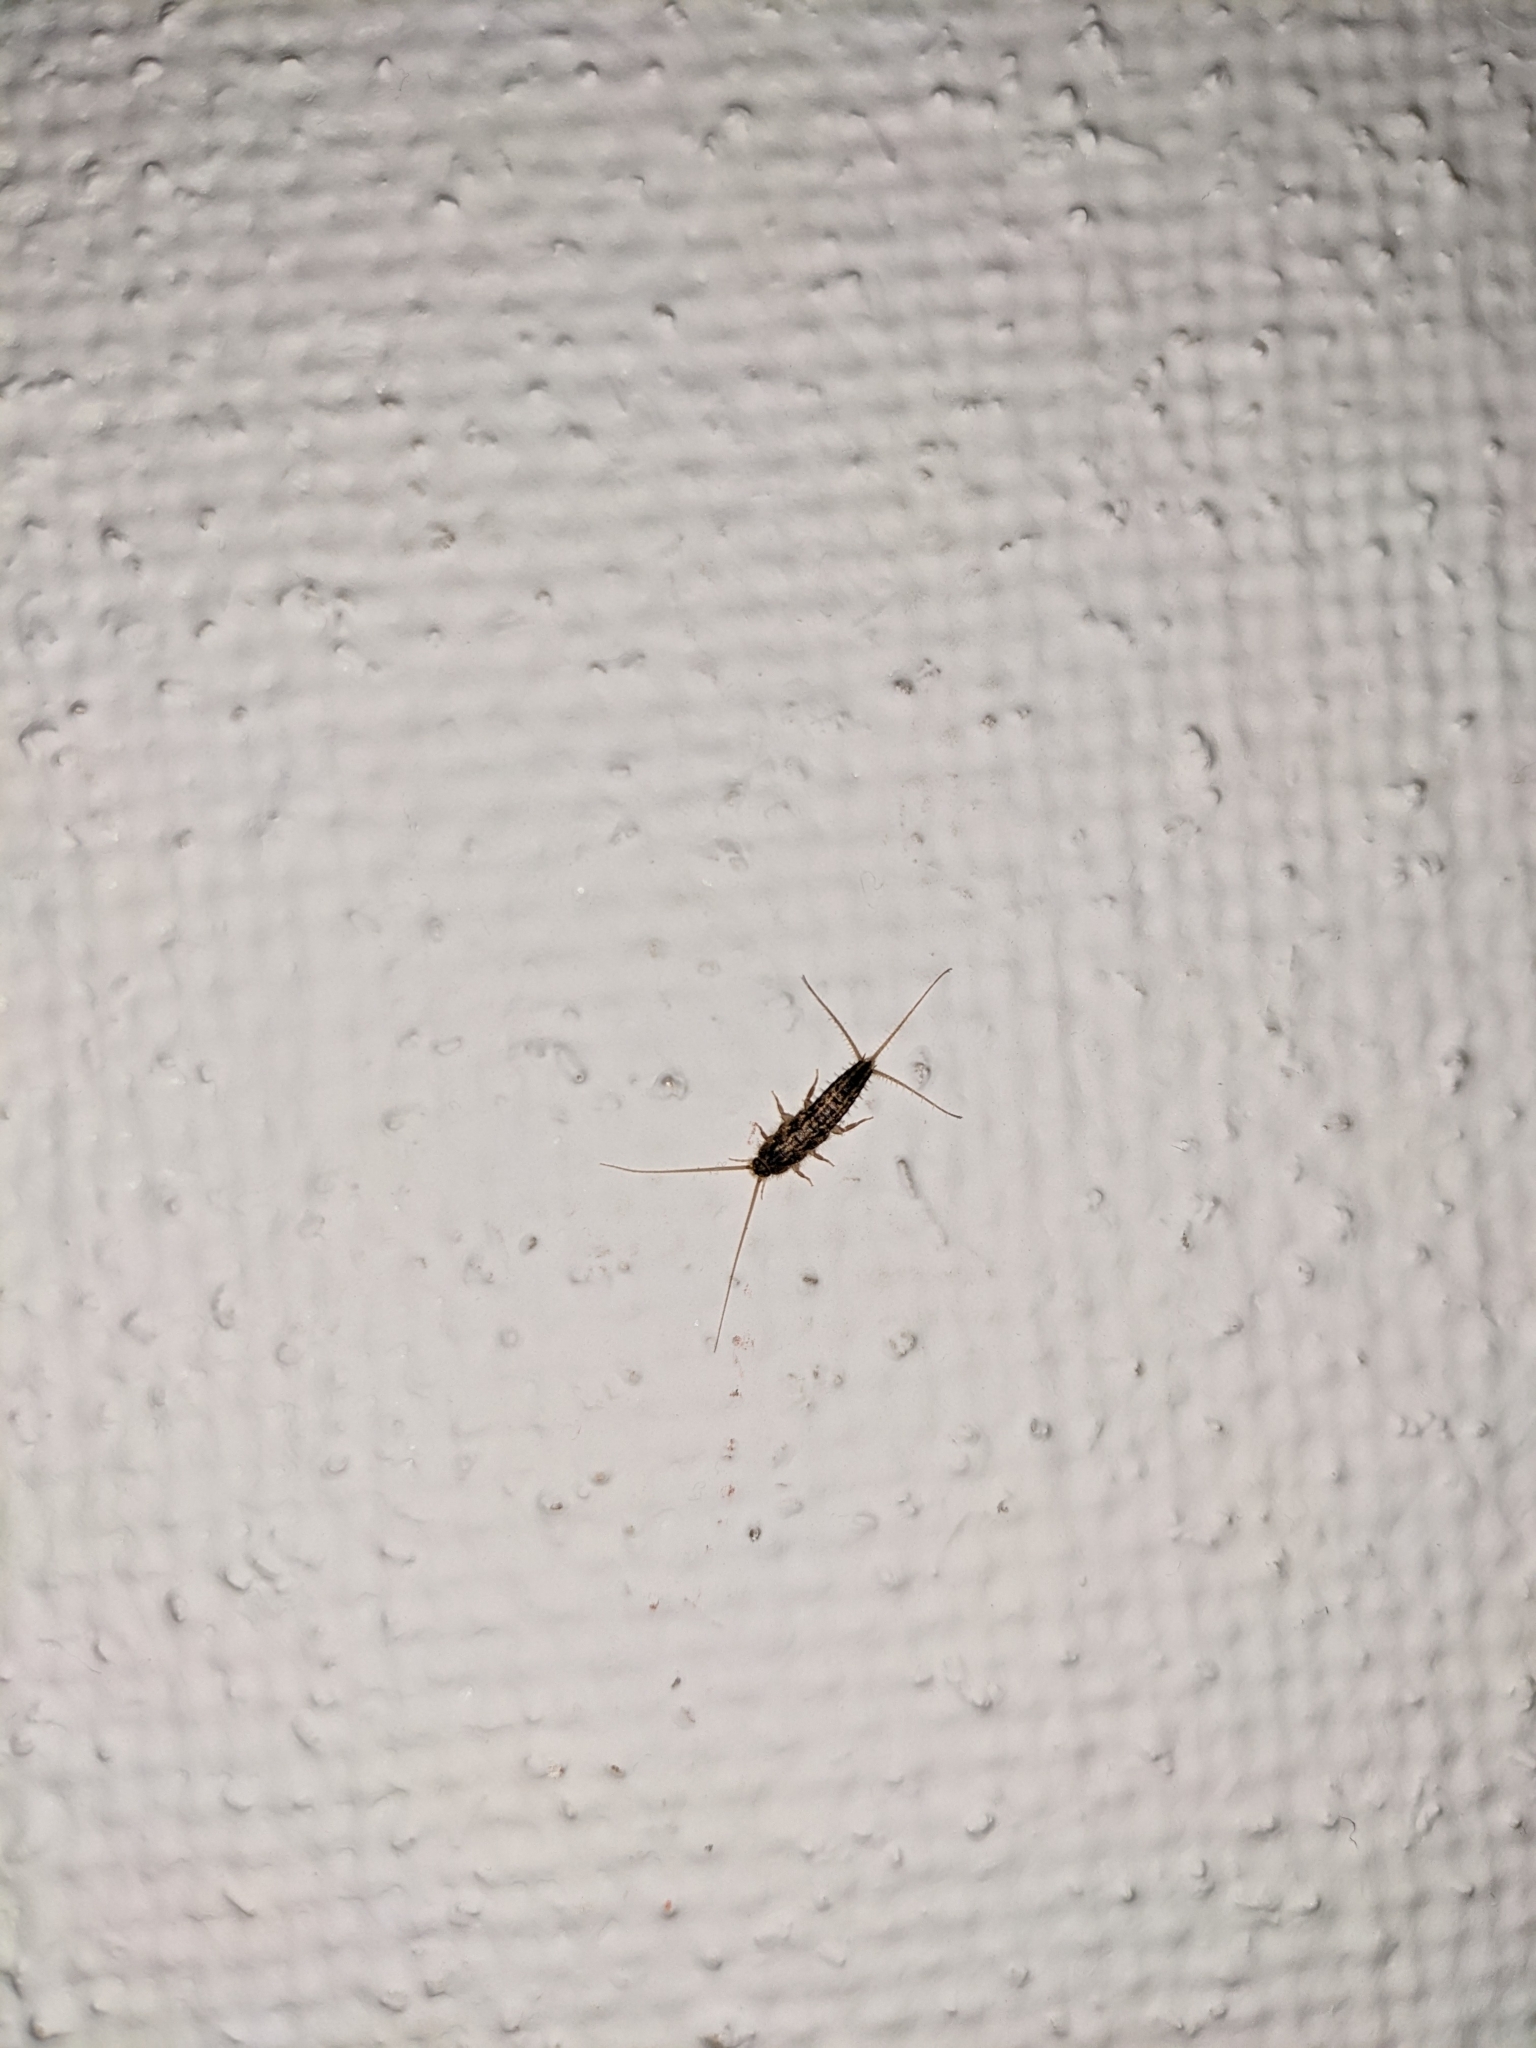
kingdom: Animalia
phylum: Arthropoda
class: Insecta
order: Zygentoma
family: Lepismatidae
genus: Ctenolepisma
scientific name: Ctenolepisma lineata
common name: Four-lined silverfish
